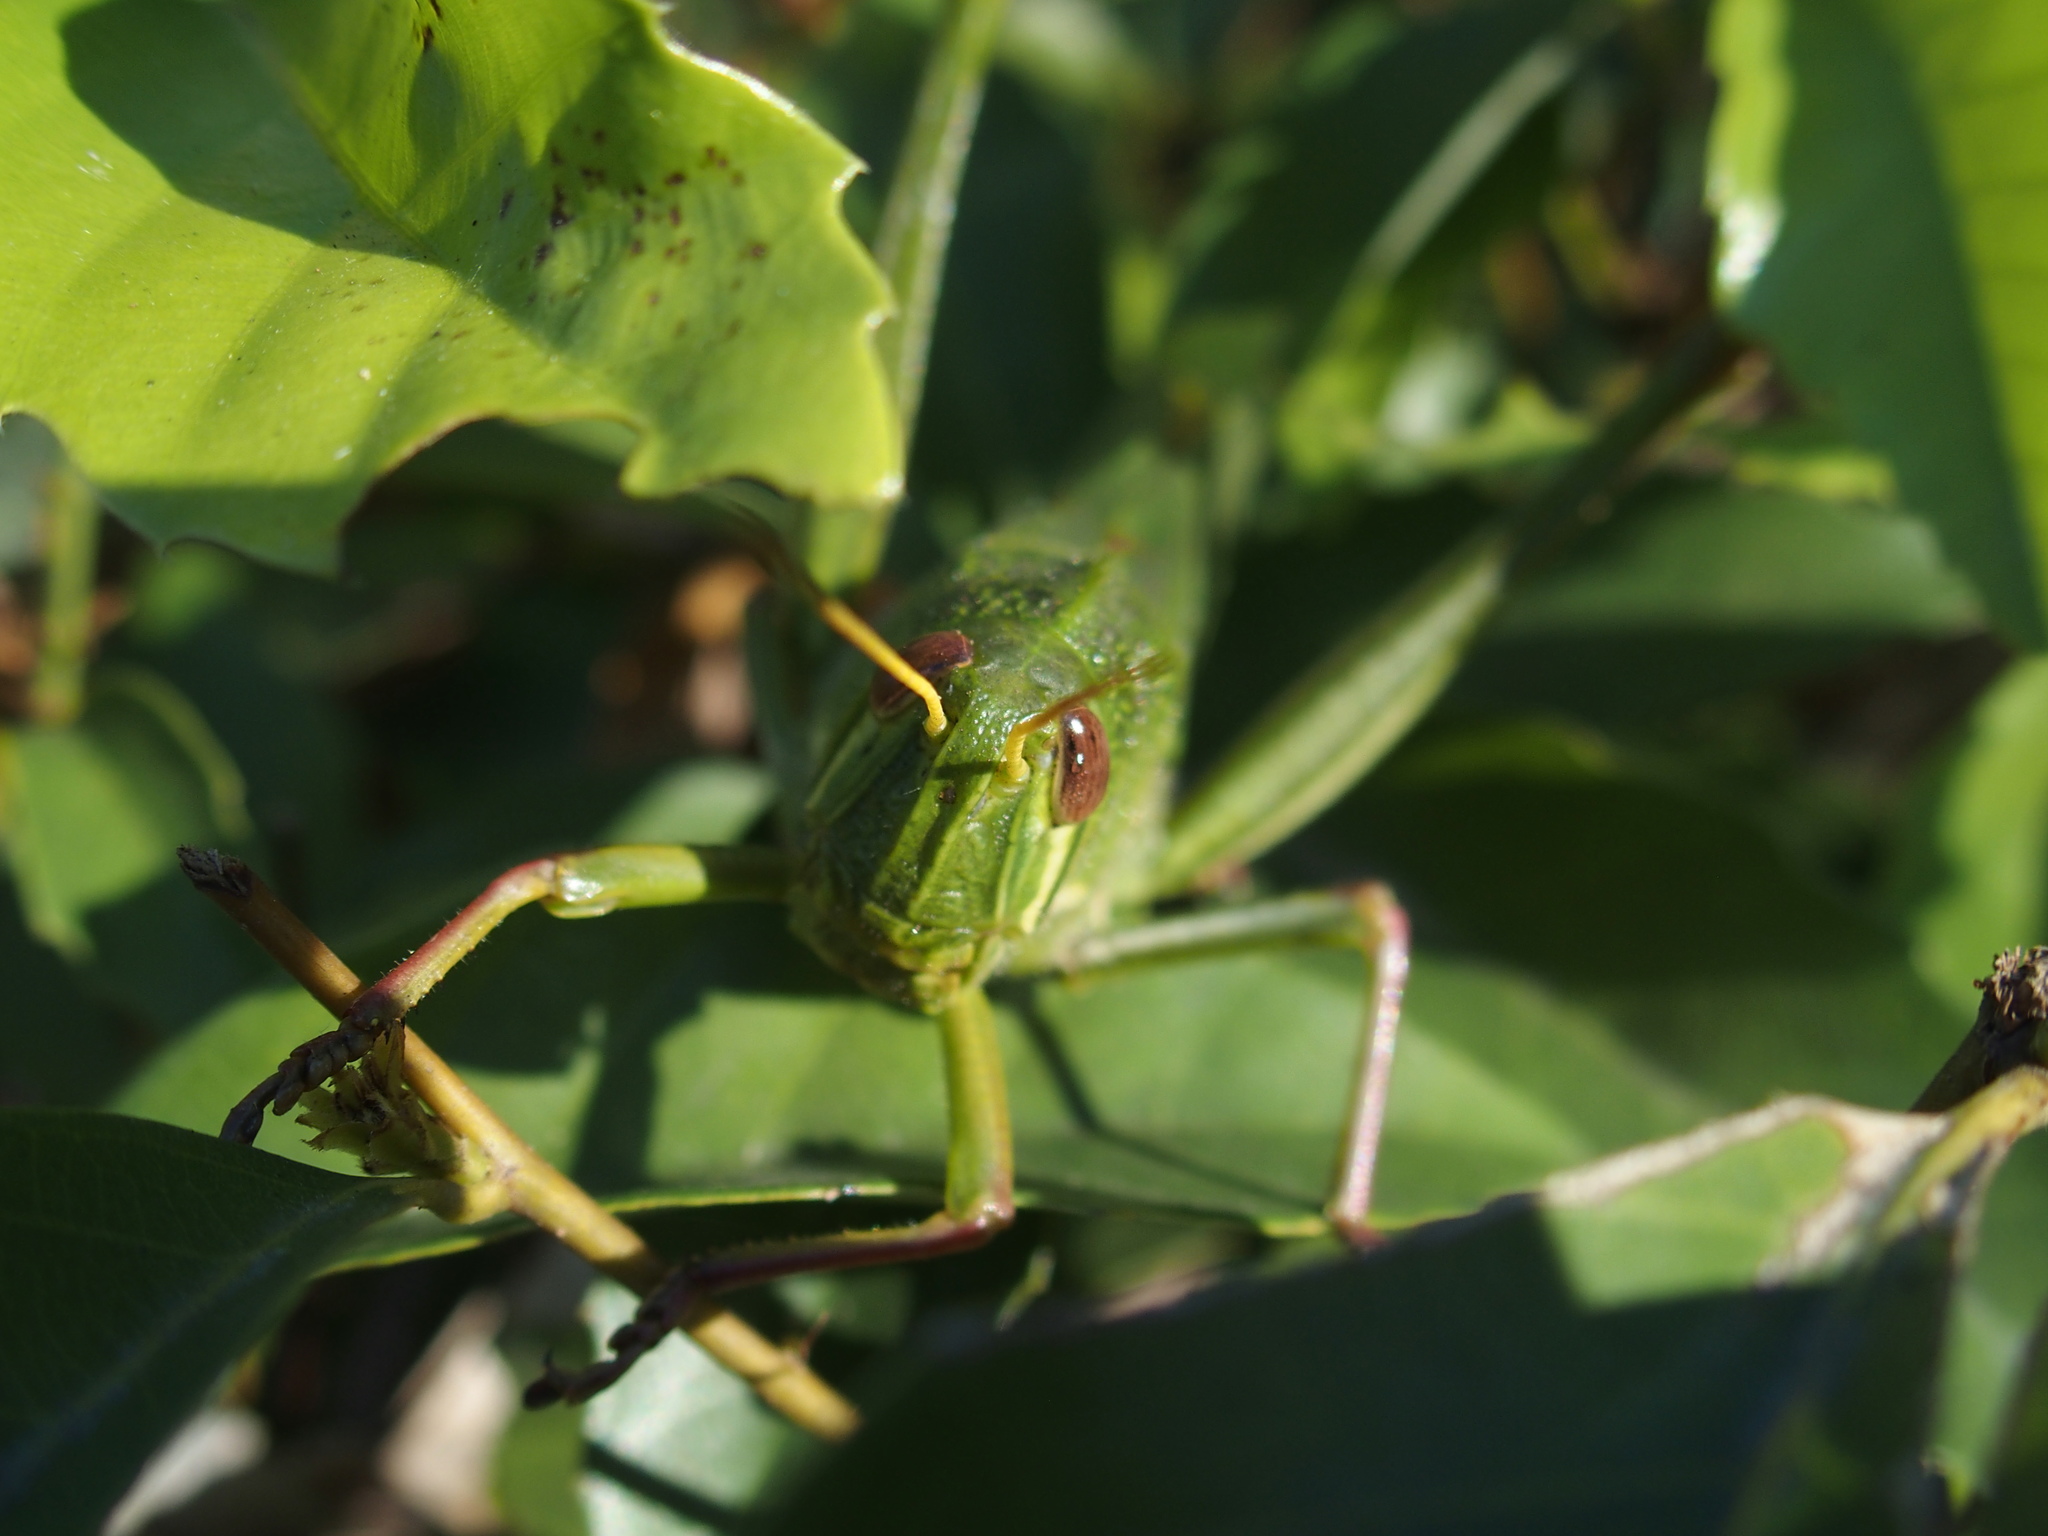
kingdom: Animalia
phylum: Arthropoda
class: Insecta
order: Orthoptera
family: Acrididae
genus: Chondracris
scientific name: Chondracris rosea
